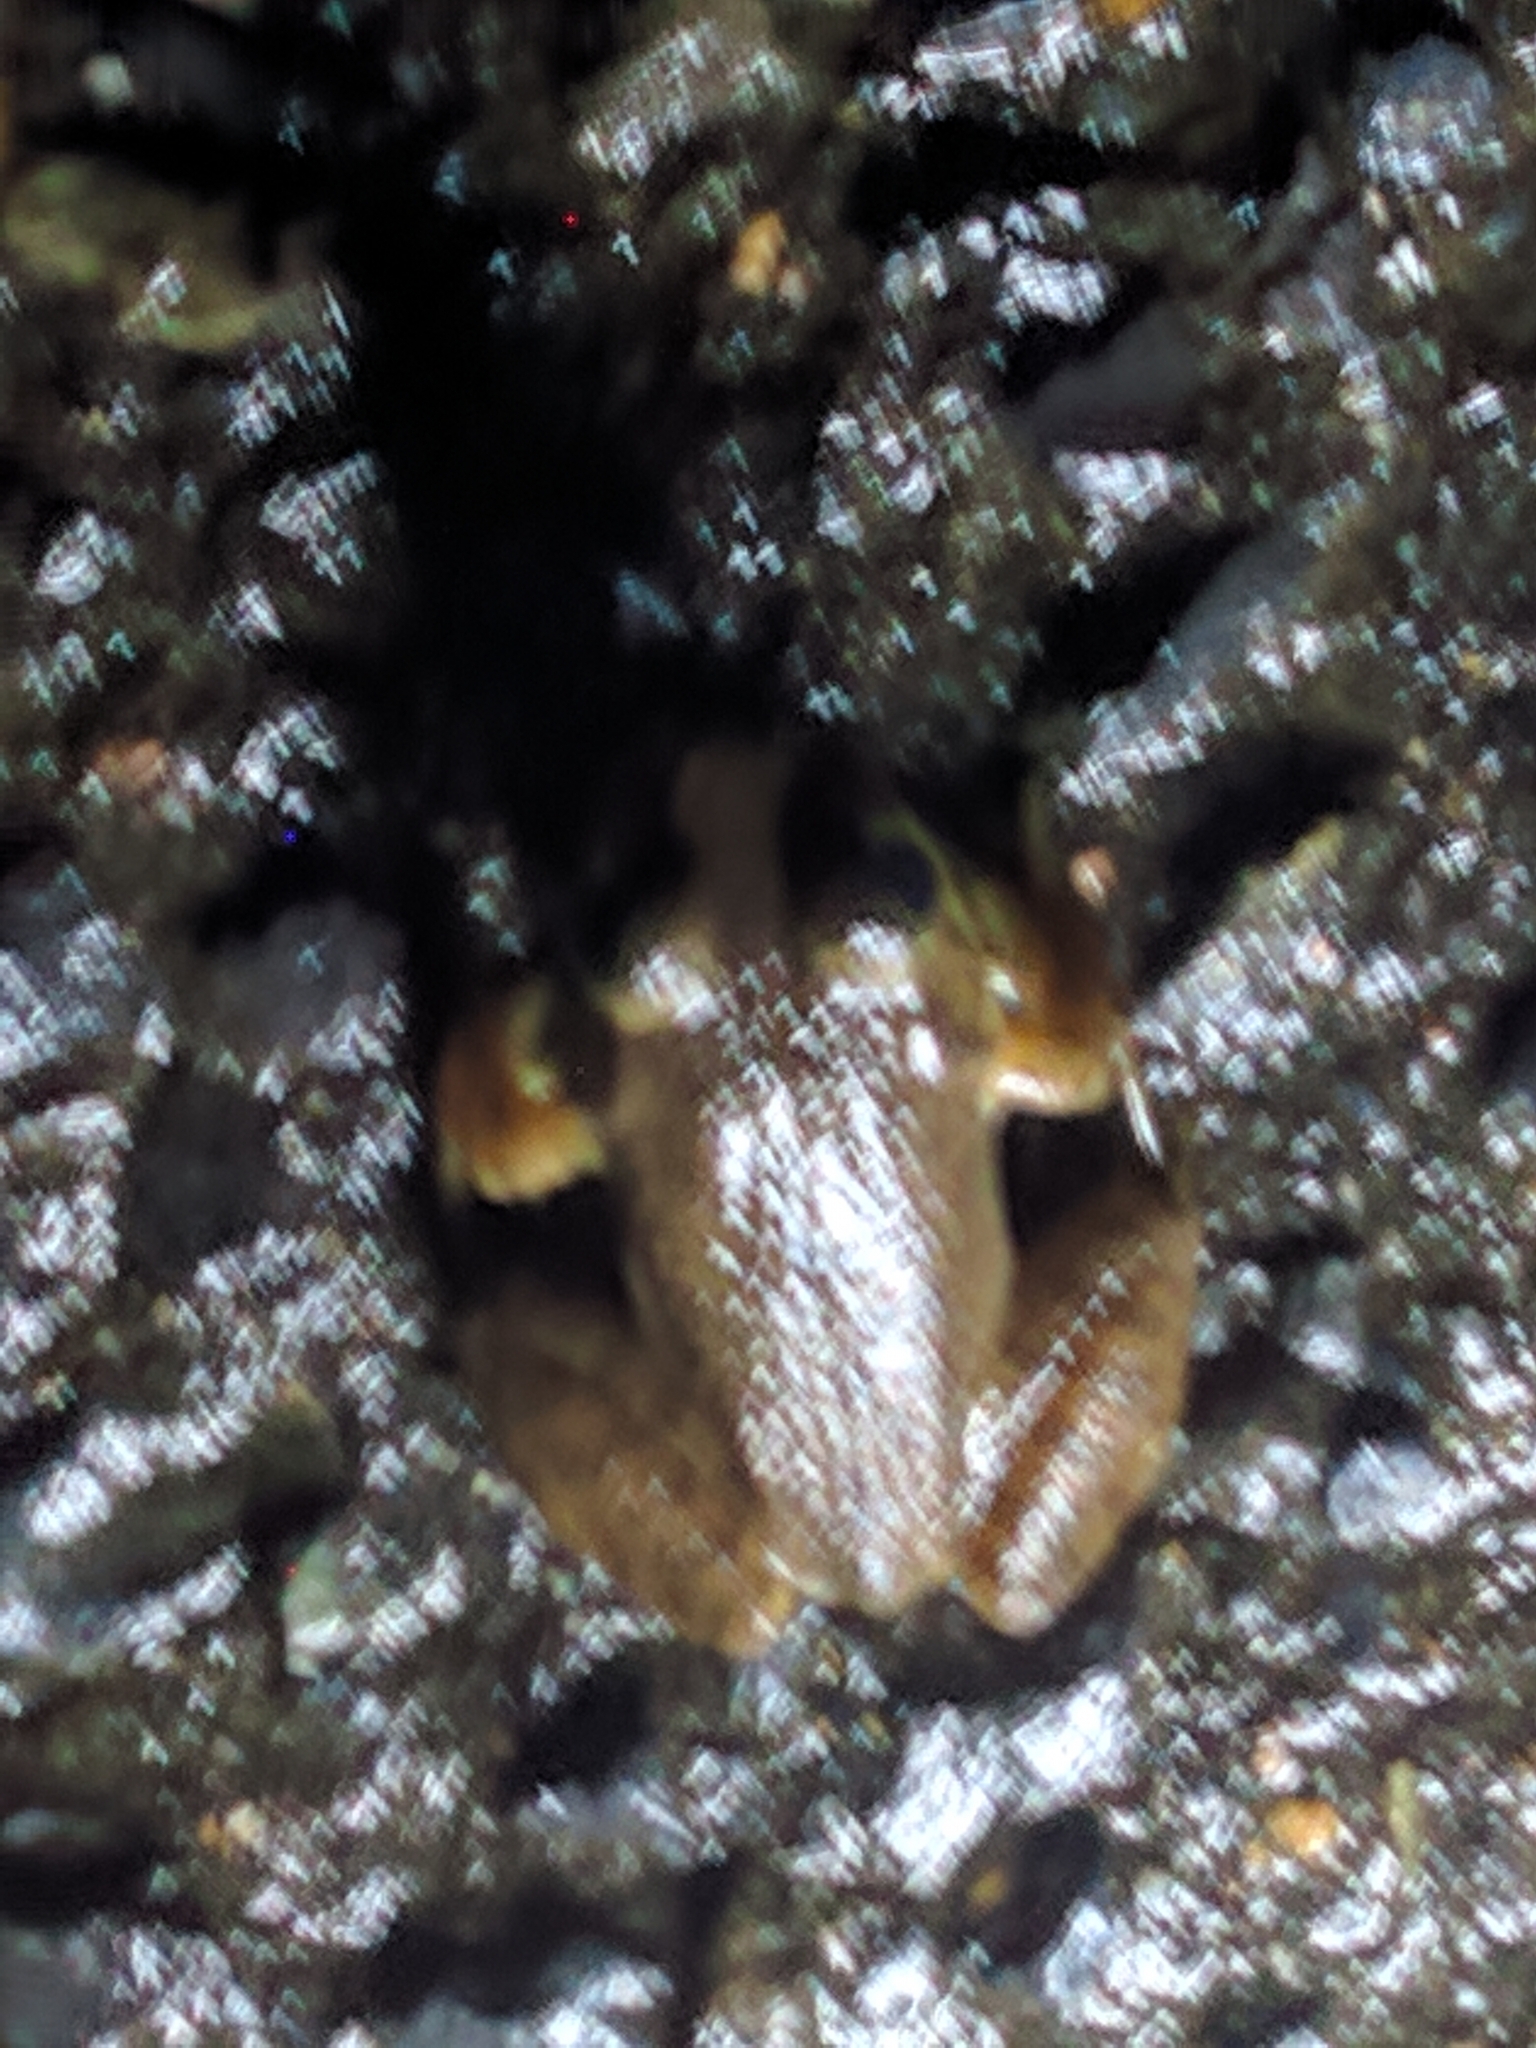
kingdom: Animalia
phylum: Chordata
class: Amphibia
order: Anura
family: Ranidae
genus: Lithobates
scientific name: Lithobates catesbeianus
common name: American bullfrog
